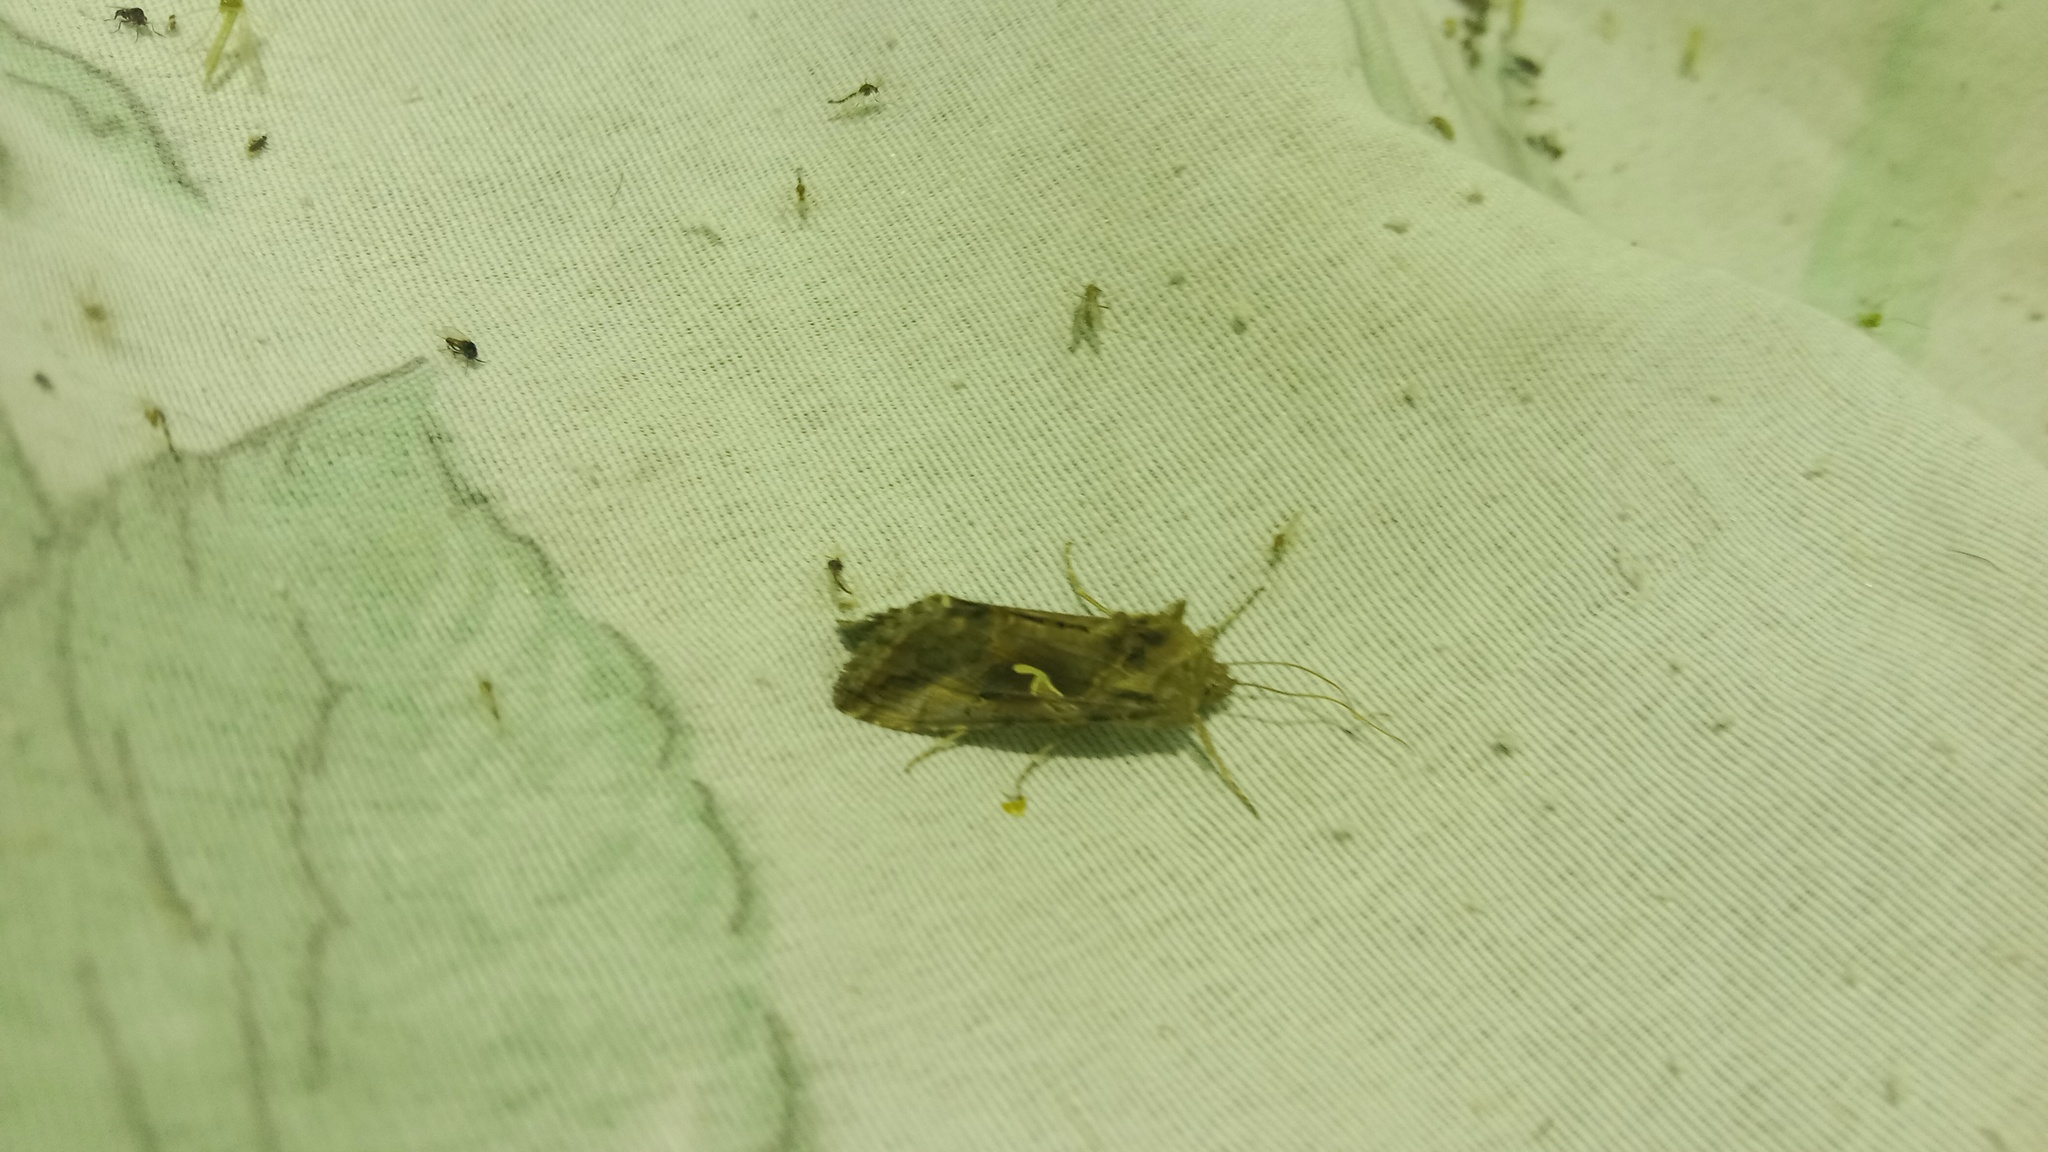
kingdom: Animalia
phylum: Arthropoda
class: Insecta
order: Lepidoptera
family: Noctuidae
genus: Autographa
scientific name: Autographa gamma
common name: Silver y
